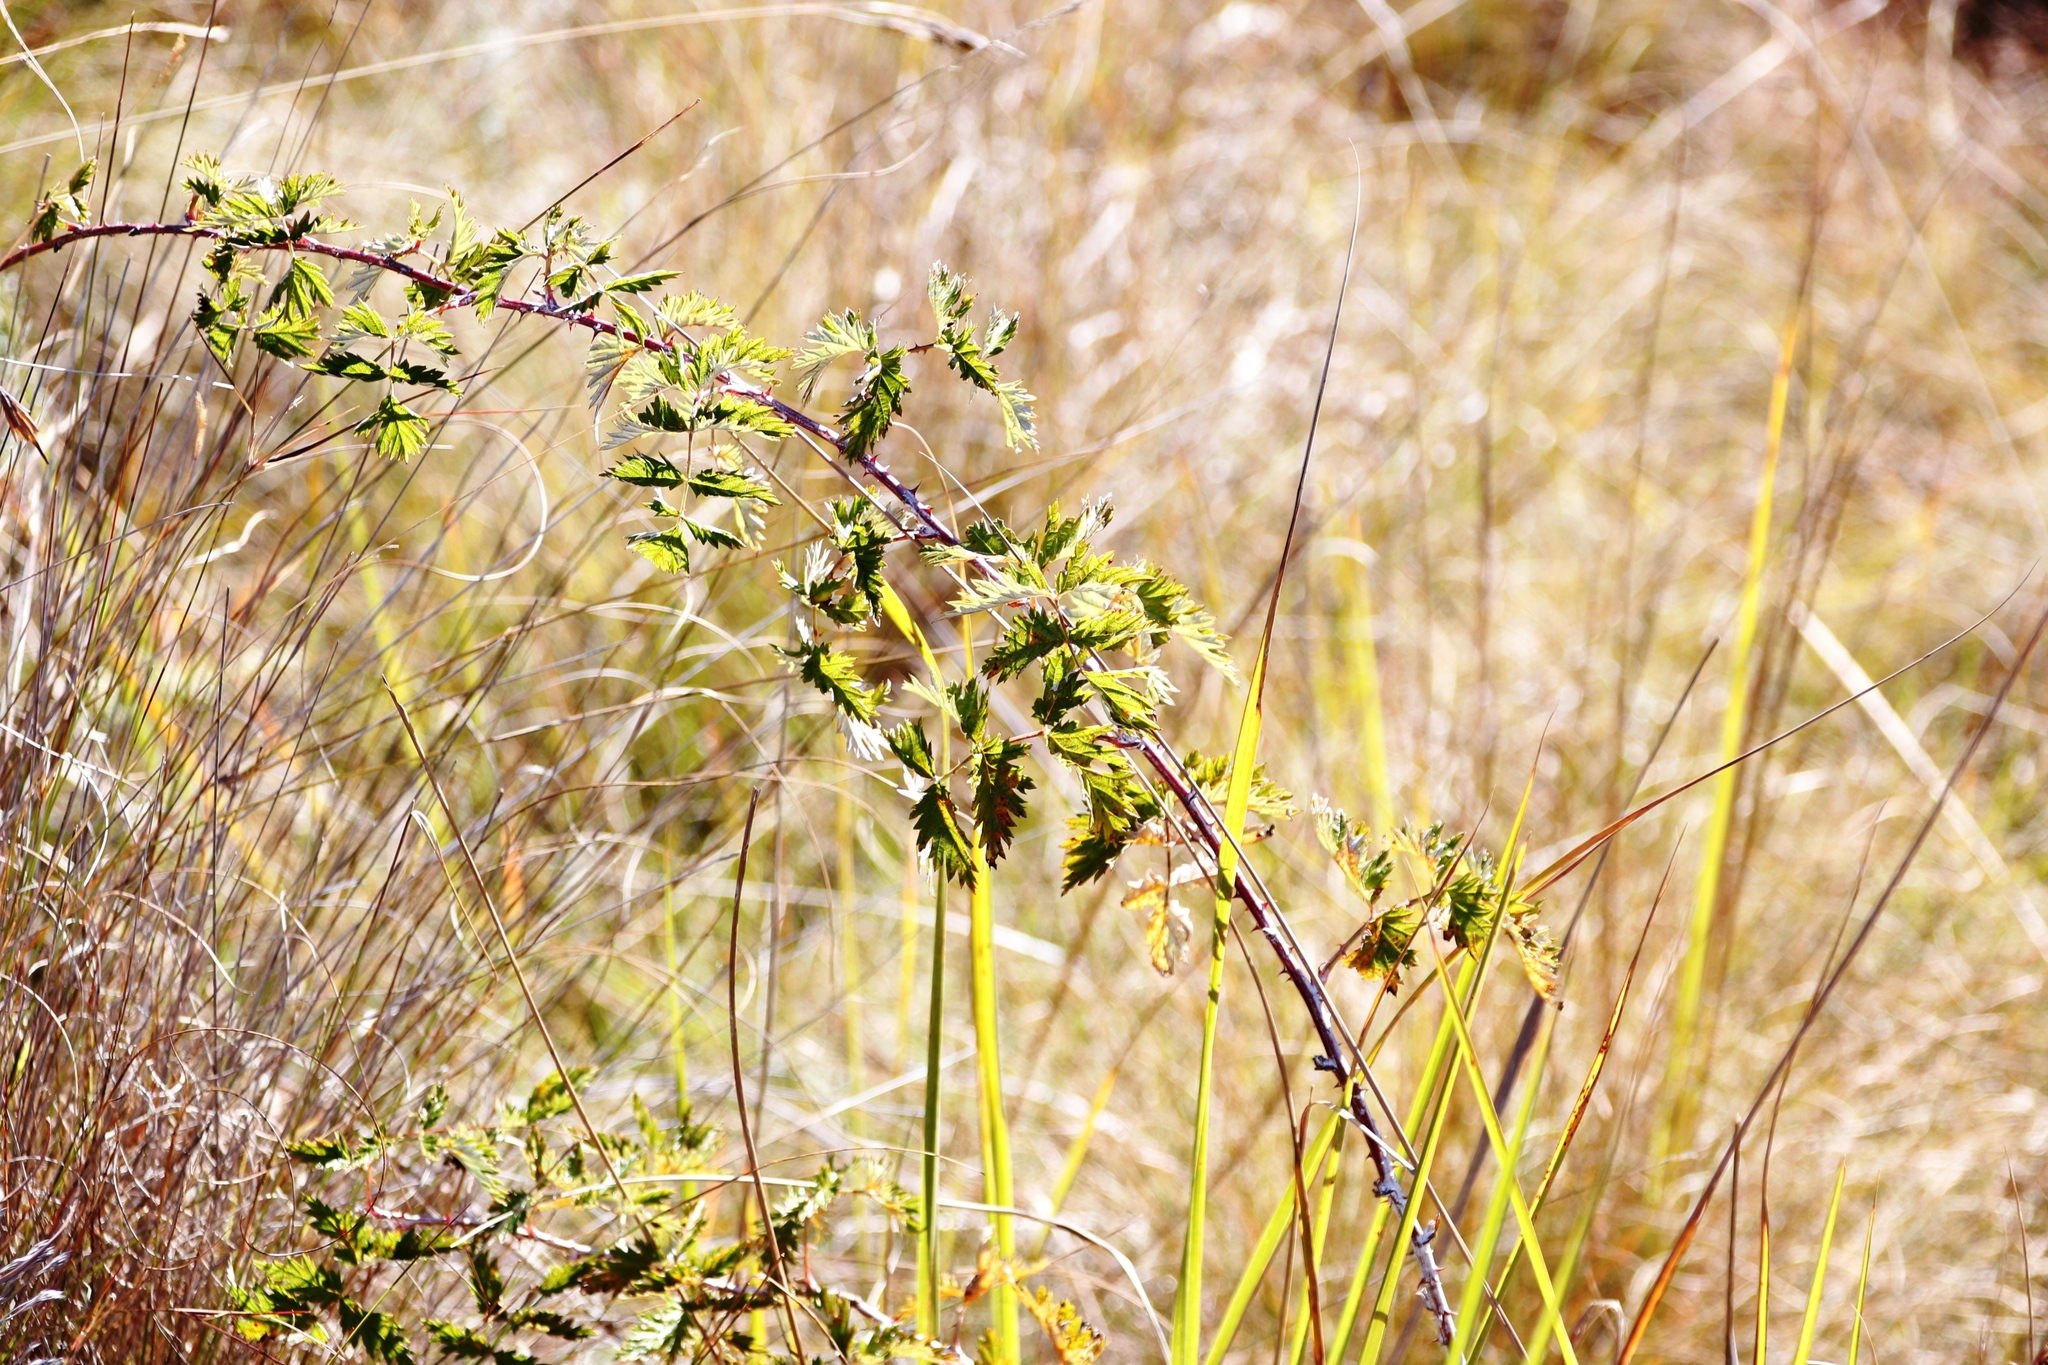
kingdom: Plantae
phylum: Tracheophyta
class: Magnoliopsida
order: Rosales
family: Rosaceae
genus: Rubus
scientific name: Rubus ludwigii
